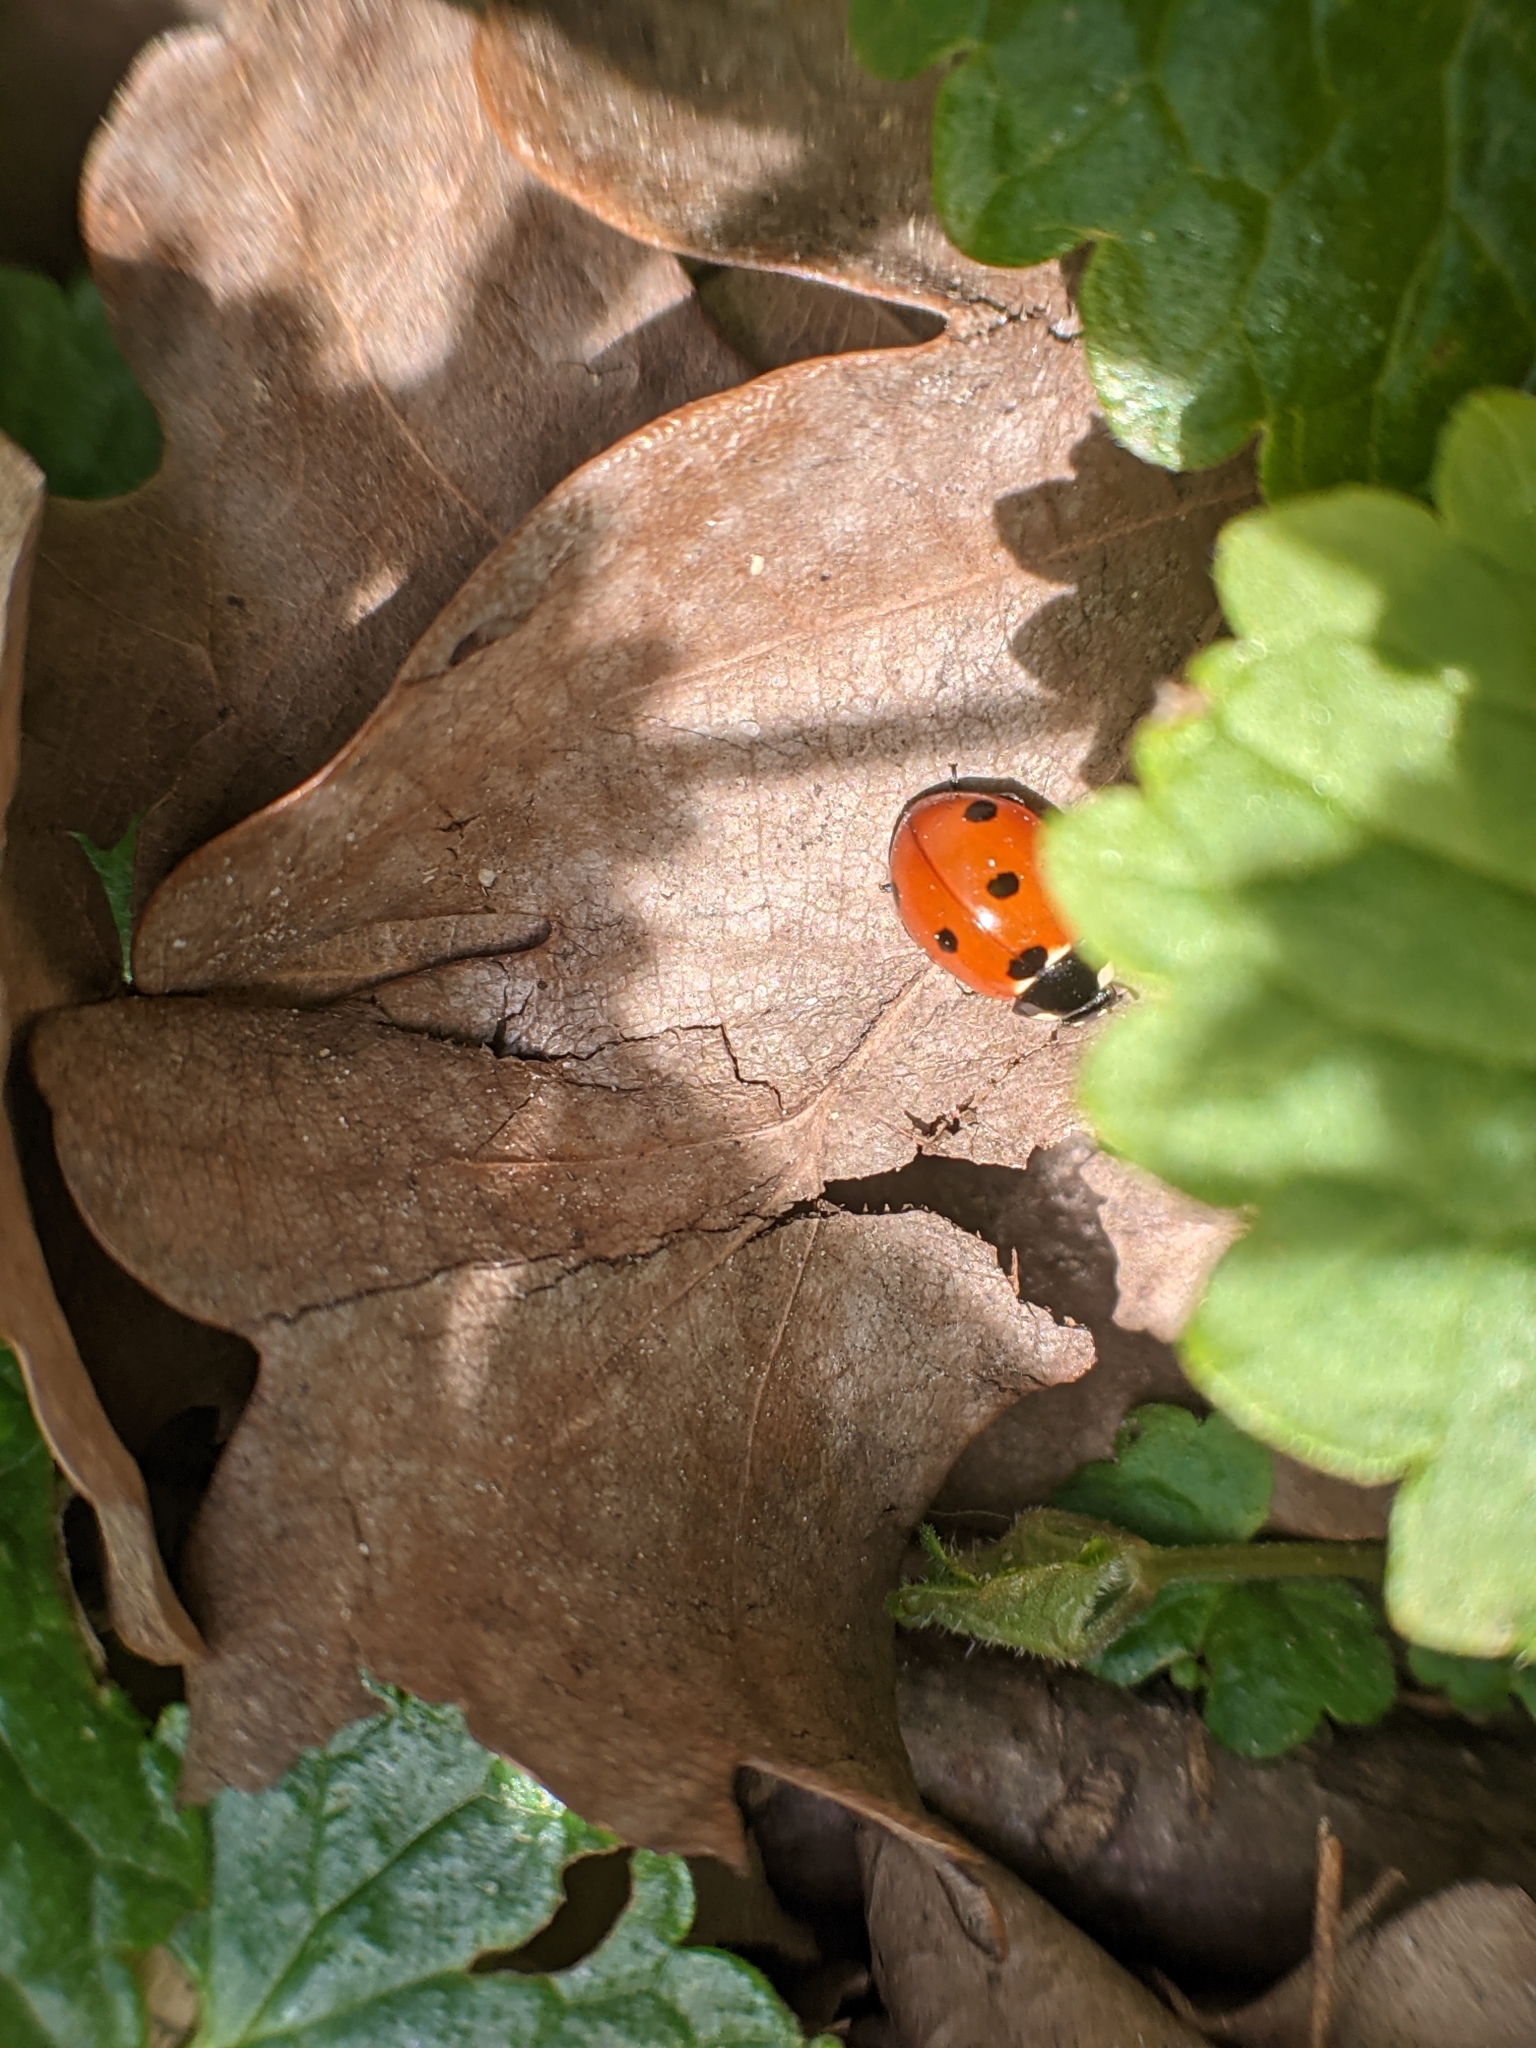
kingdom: Animalia
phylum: Arthropoda
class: Insecta
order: Coleoptera
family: Coccinellidae
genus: Coccinella
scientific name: Coccinella septempunctata
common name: Sevenspotted lady beetle
